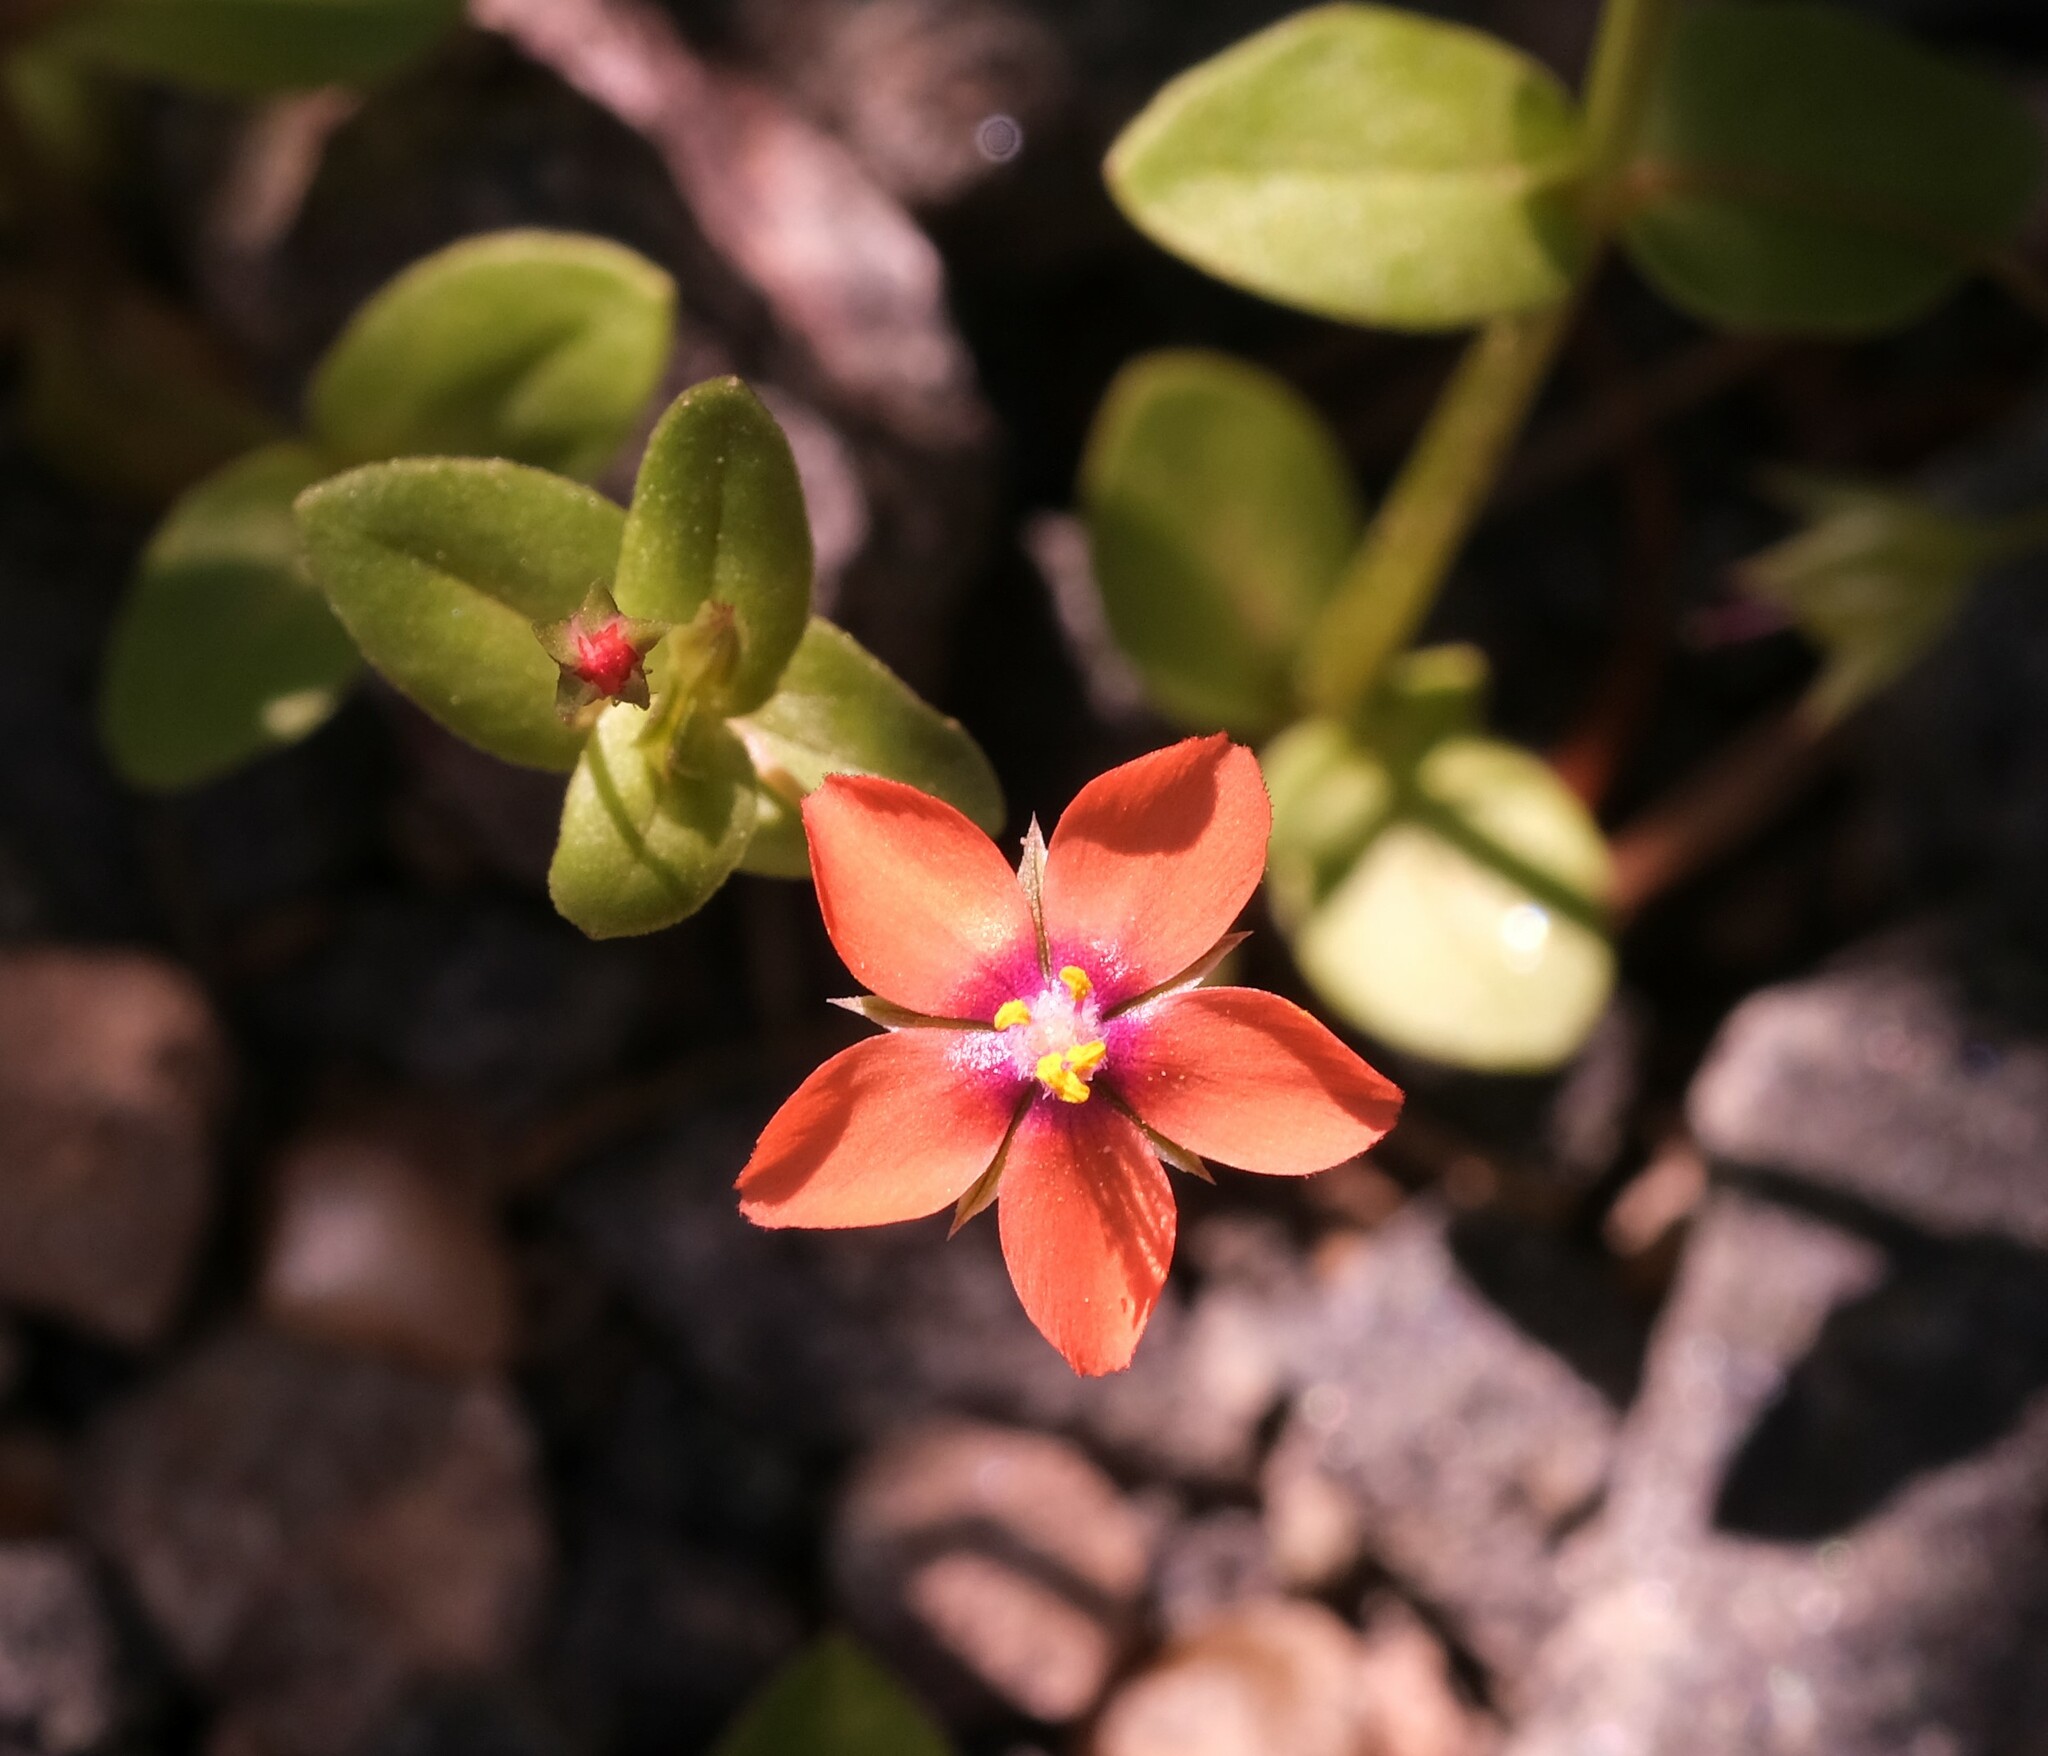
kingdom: Plantae
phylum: Tracheophyta
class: Magnoliopsida
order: Ericales
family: Primulaceae
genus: Lysimachia
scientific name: Lysimachia arvensis
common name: Scarlet pimpernel
